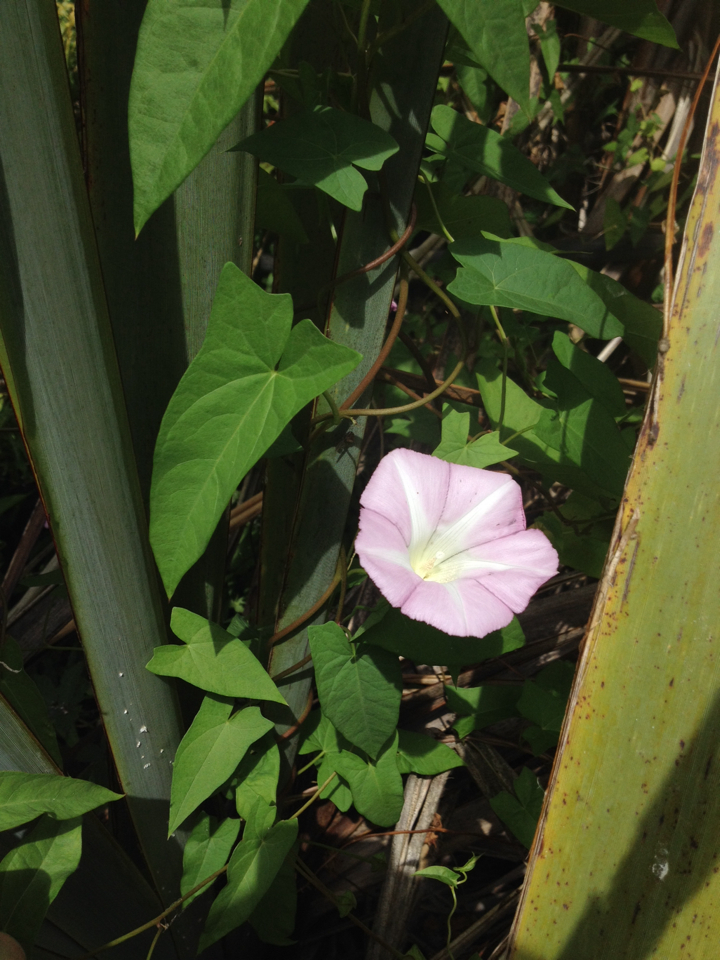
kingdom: Plantae
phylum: Tracheophyta
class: Magnoliopsida
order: Solanales
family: Convolvulaceae
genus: Calystegia
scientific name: Calystegia sepium
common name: Hedge bindweed
